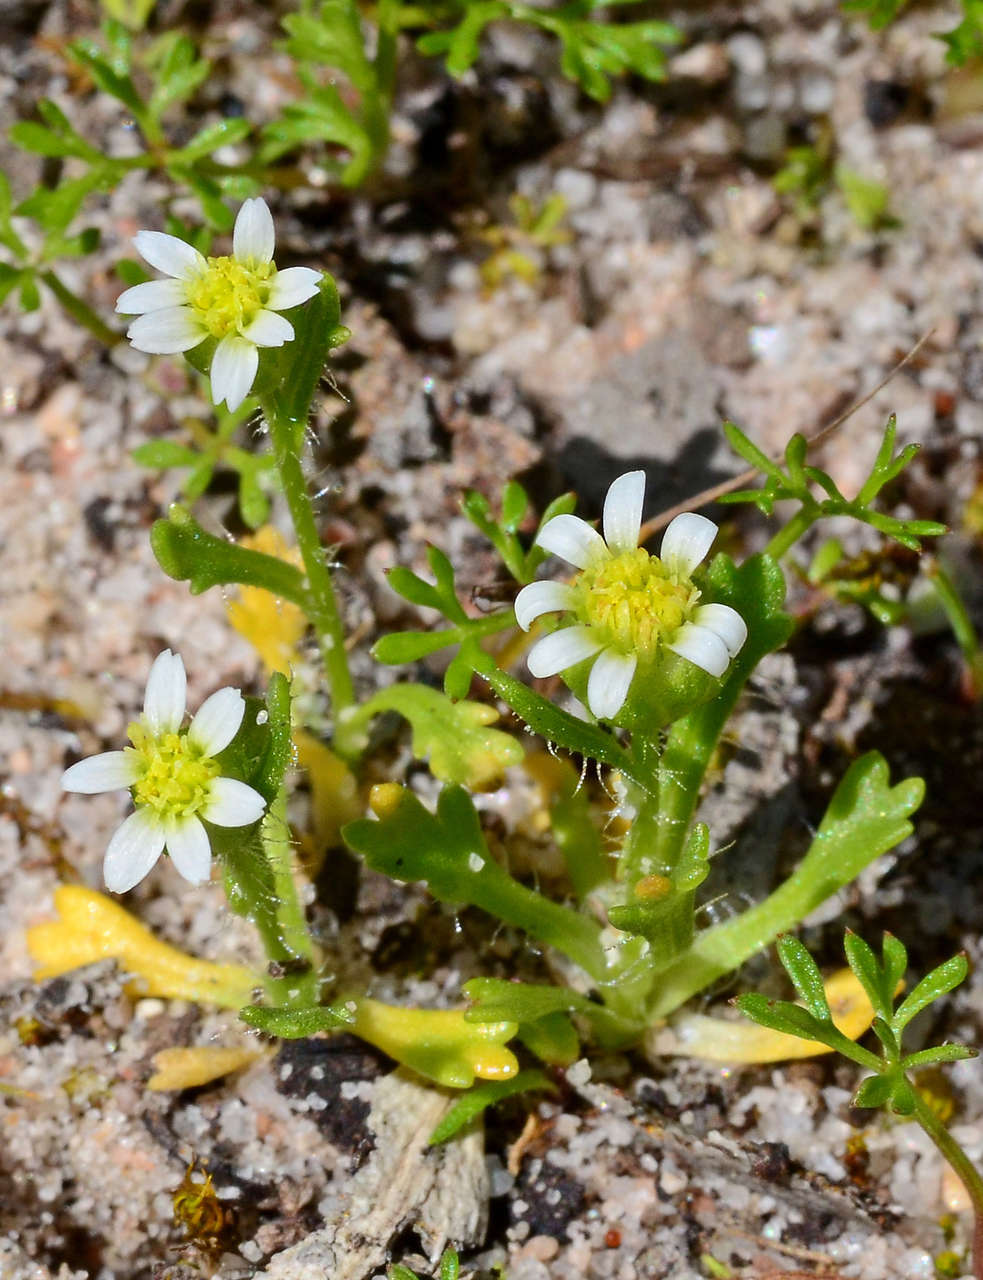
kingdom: Plantae
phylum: Tracheophyta
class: Magnoliopsida
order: Asterales
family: Asteraceae
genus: Brachyscome
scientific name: Brachyscome goniocarpa
